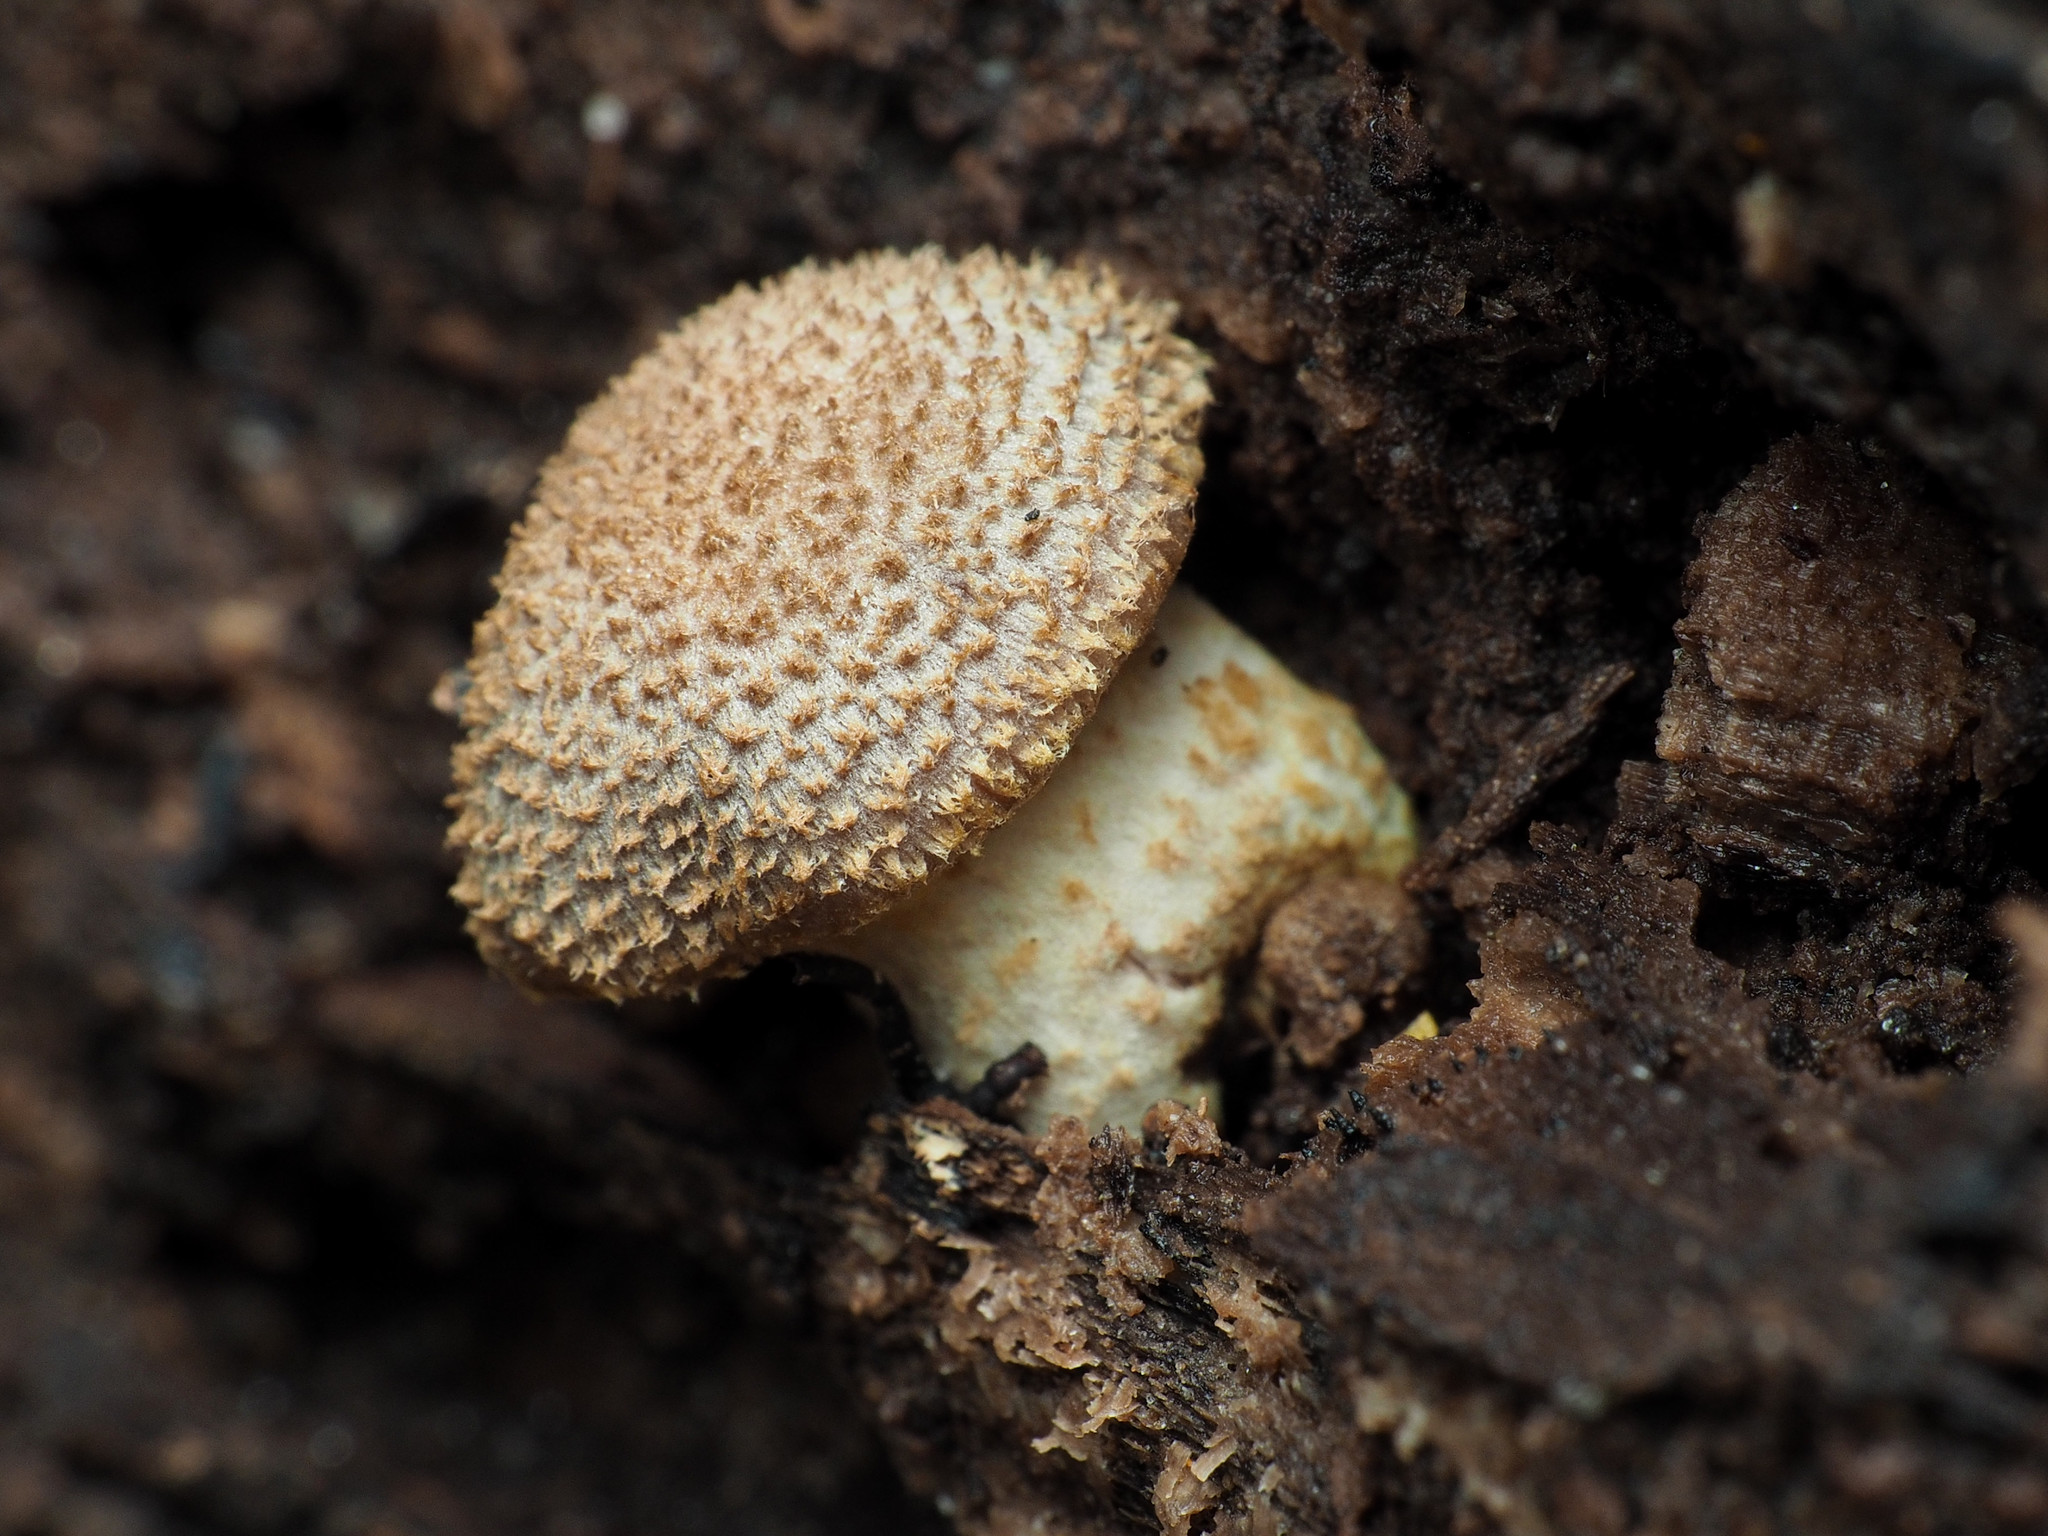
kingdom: Fungi
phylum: Basidiomycota
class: Agaricomycetes
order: Agaricales
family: Physalacriaceae
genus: Armillaria
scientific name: Armillaria gallica
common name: Bulbous honey fungus
